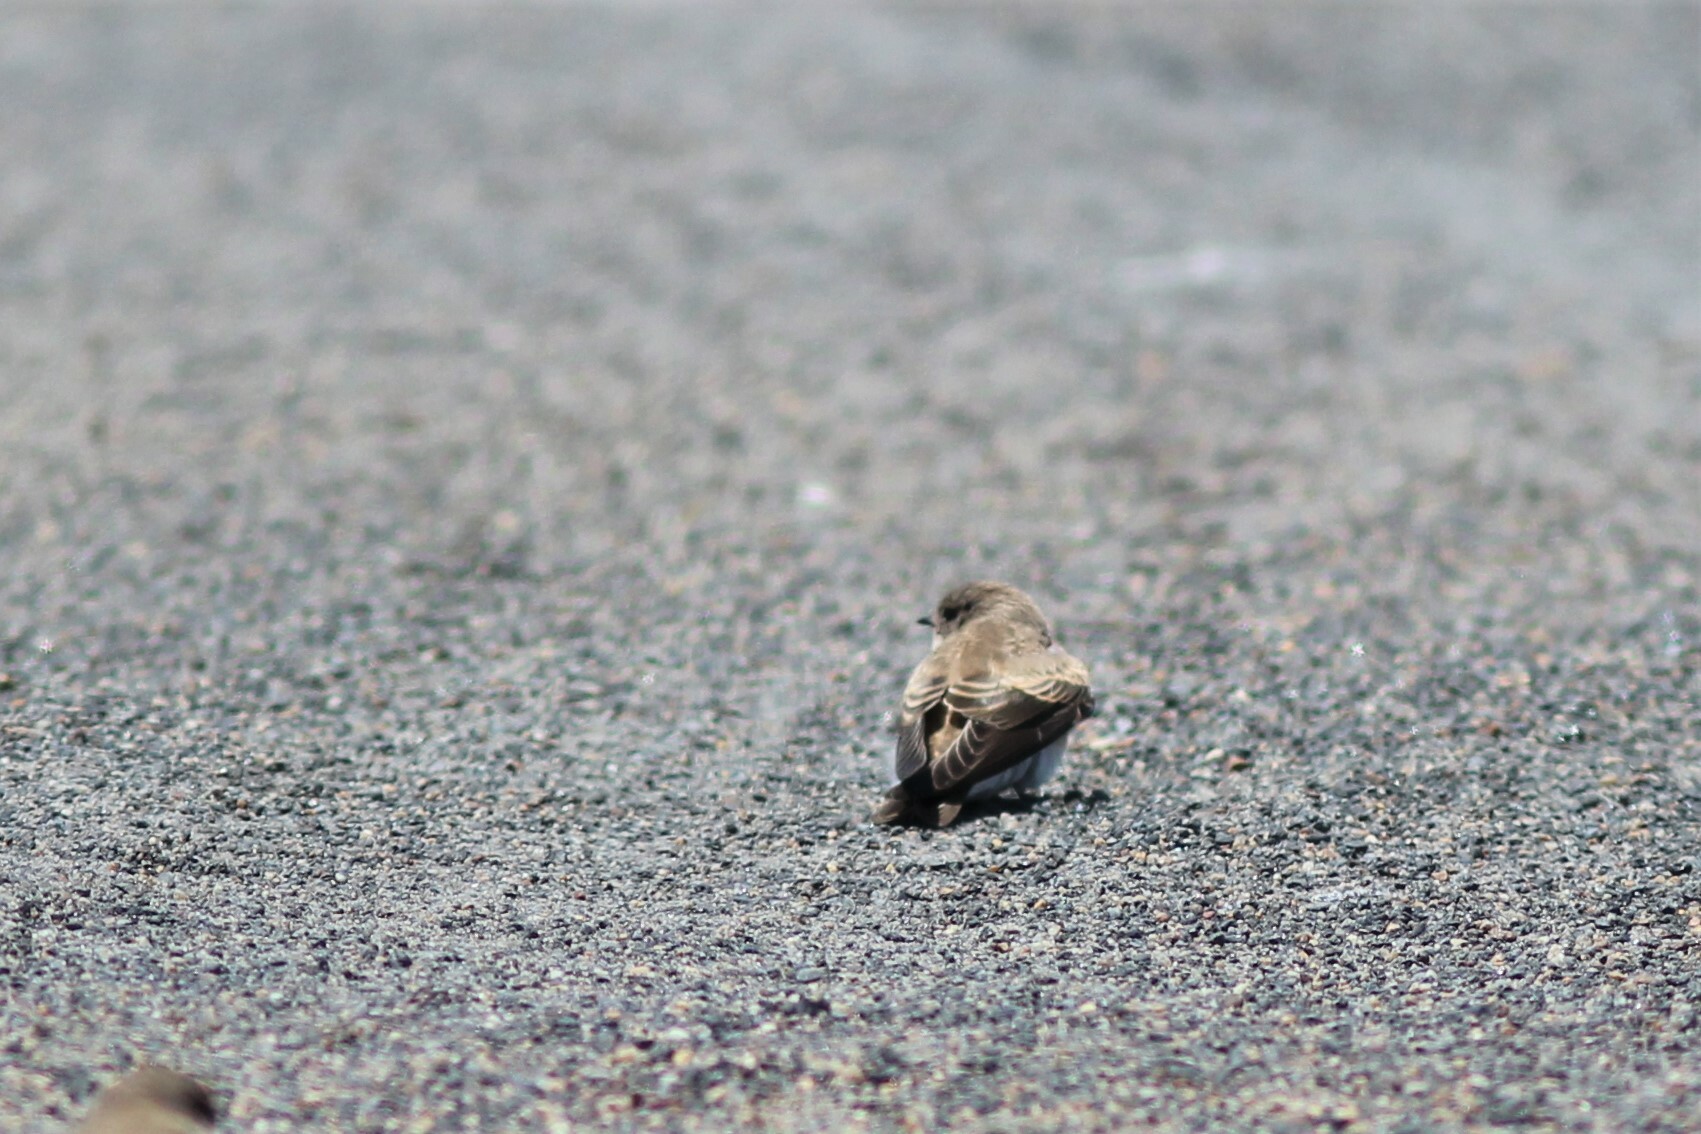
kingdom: Animalia
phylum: Chordata
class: Aves
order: Passeriformes
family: Hirundinidae
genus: Riparia
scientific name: Riparia paludicola
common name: Brown-throated martin
